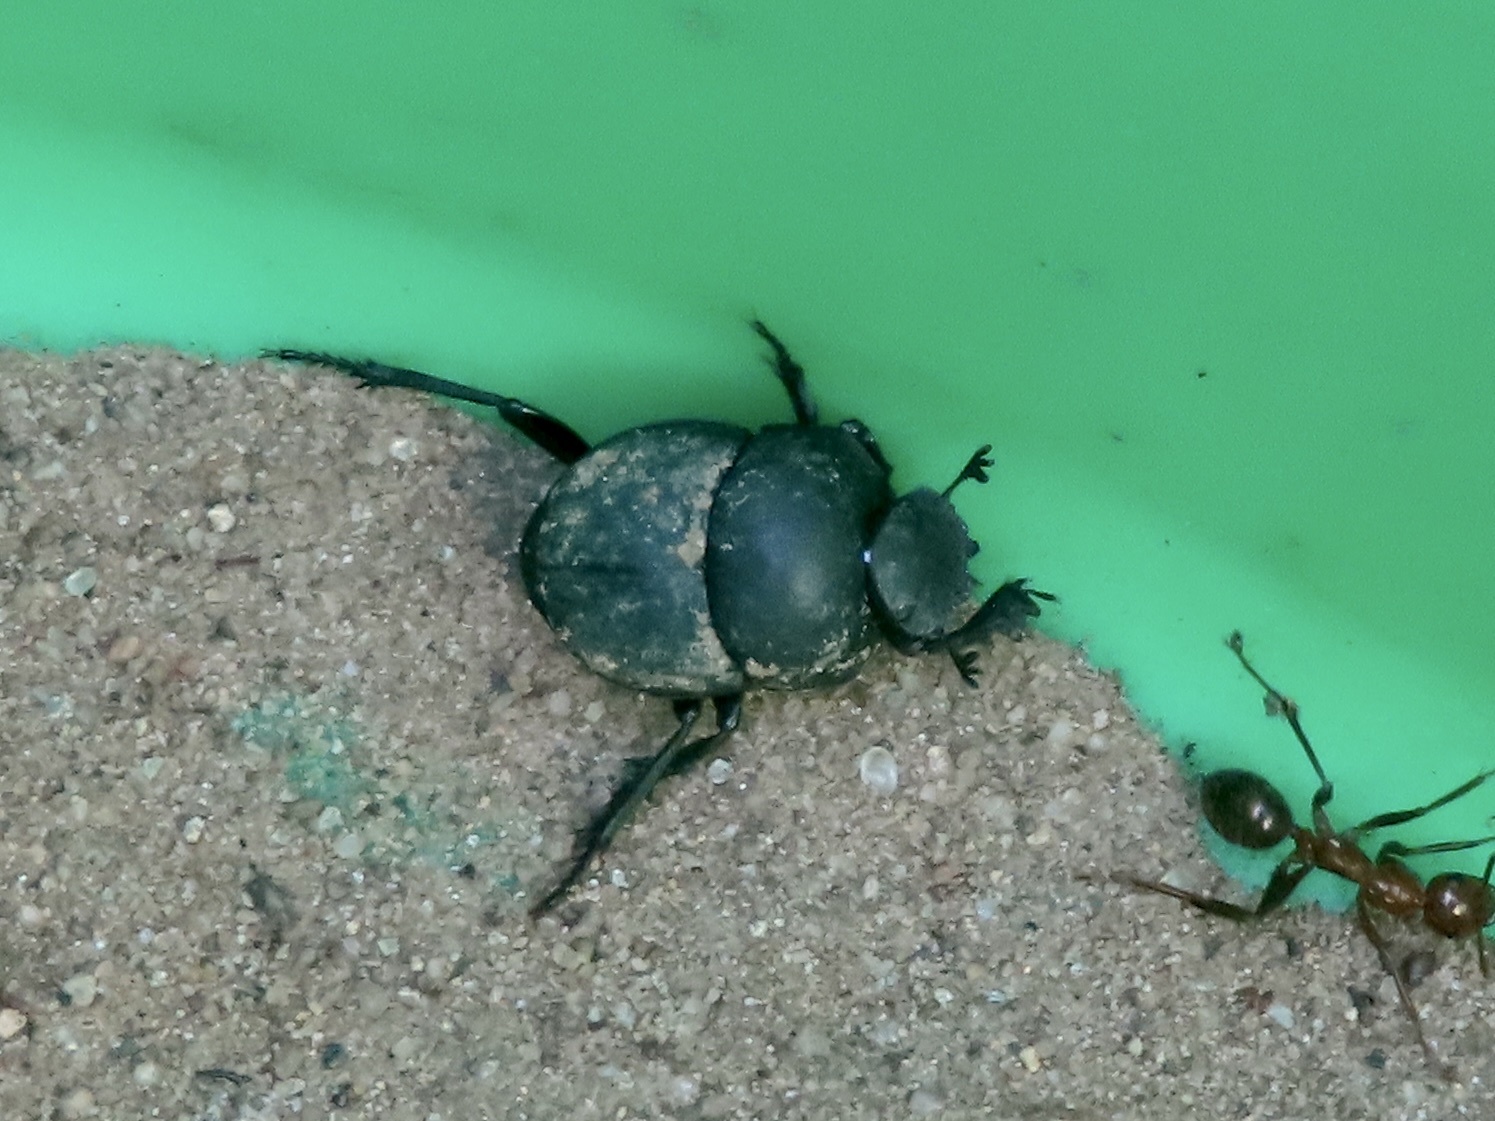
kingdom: Animalia
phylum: Arthropoda
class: Insecta
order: Coleoptera
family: Scarabaeidae
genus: Melanocanthon
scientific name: Melanocanthon nigricornis
